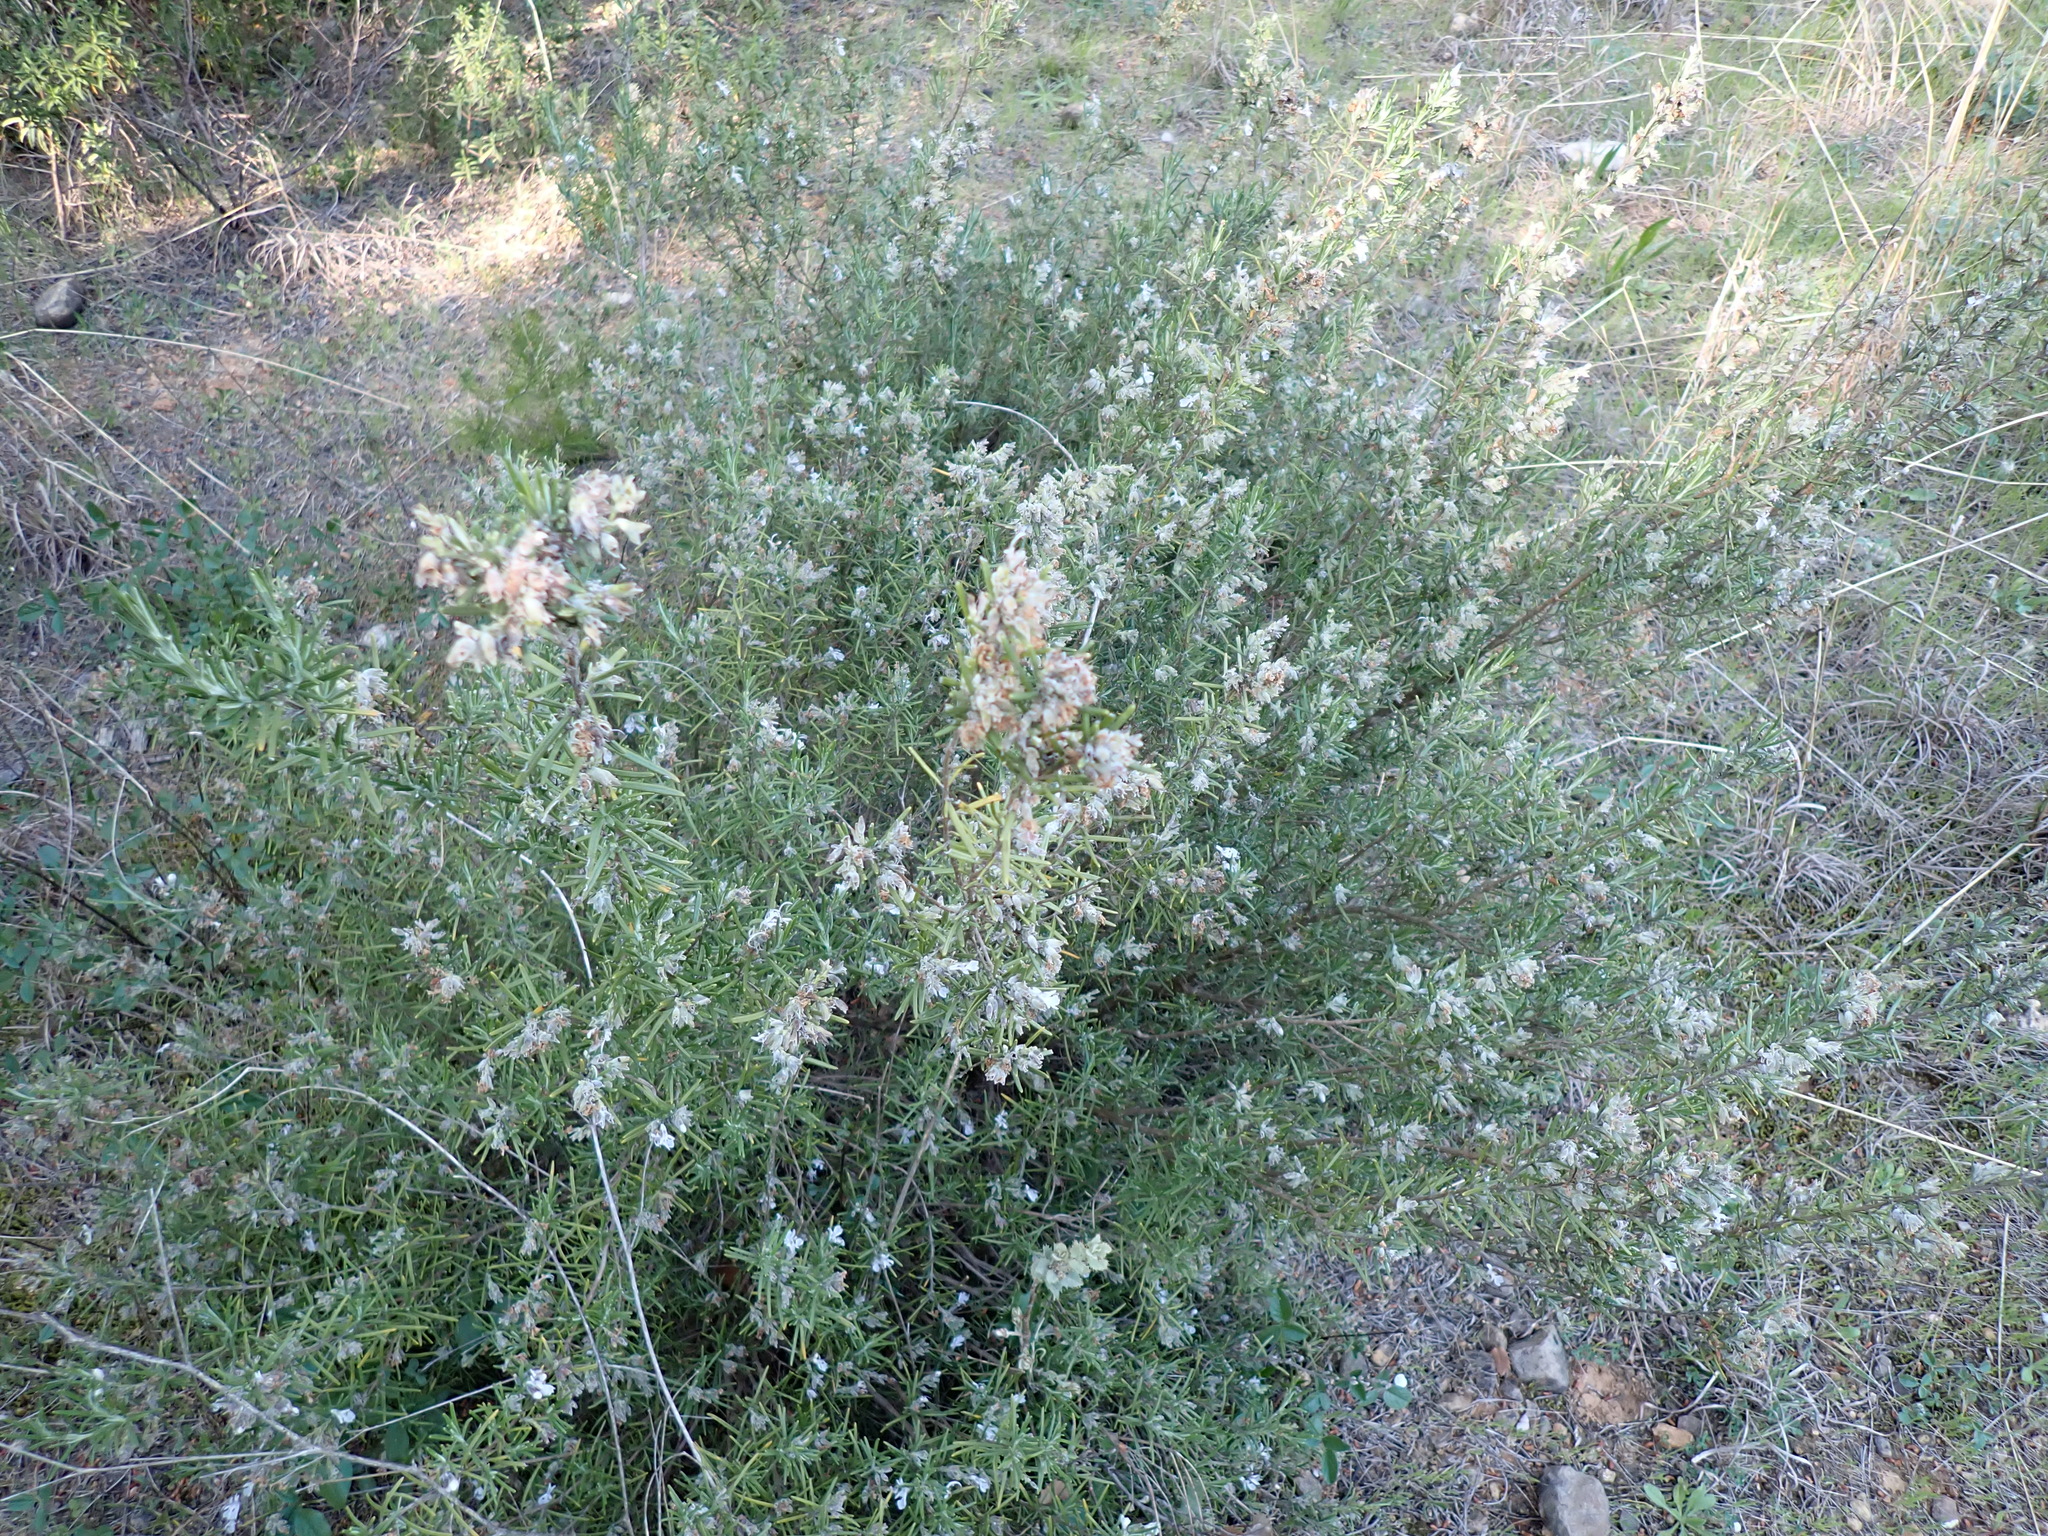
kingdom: Plantae
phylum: Tracheophyta
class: Magnoliopsida
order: Lamiales
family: Lamiaceae
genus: Salvia
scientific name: Salvia rosmarinus
